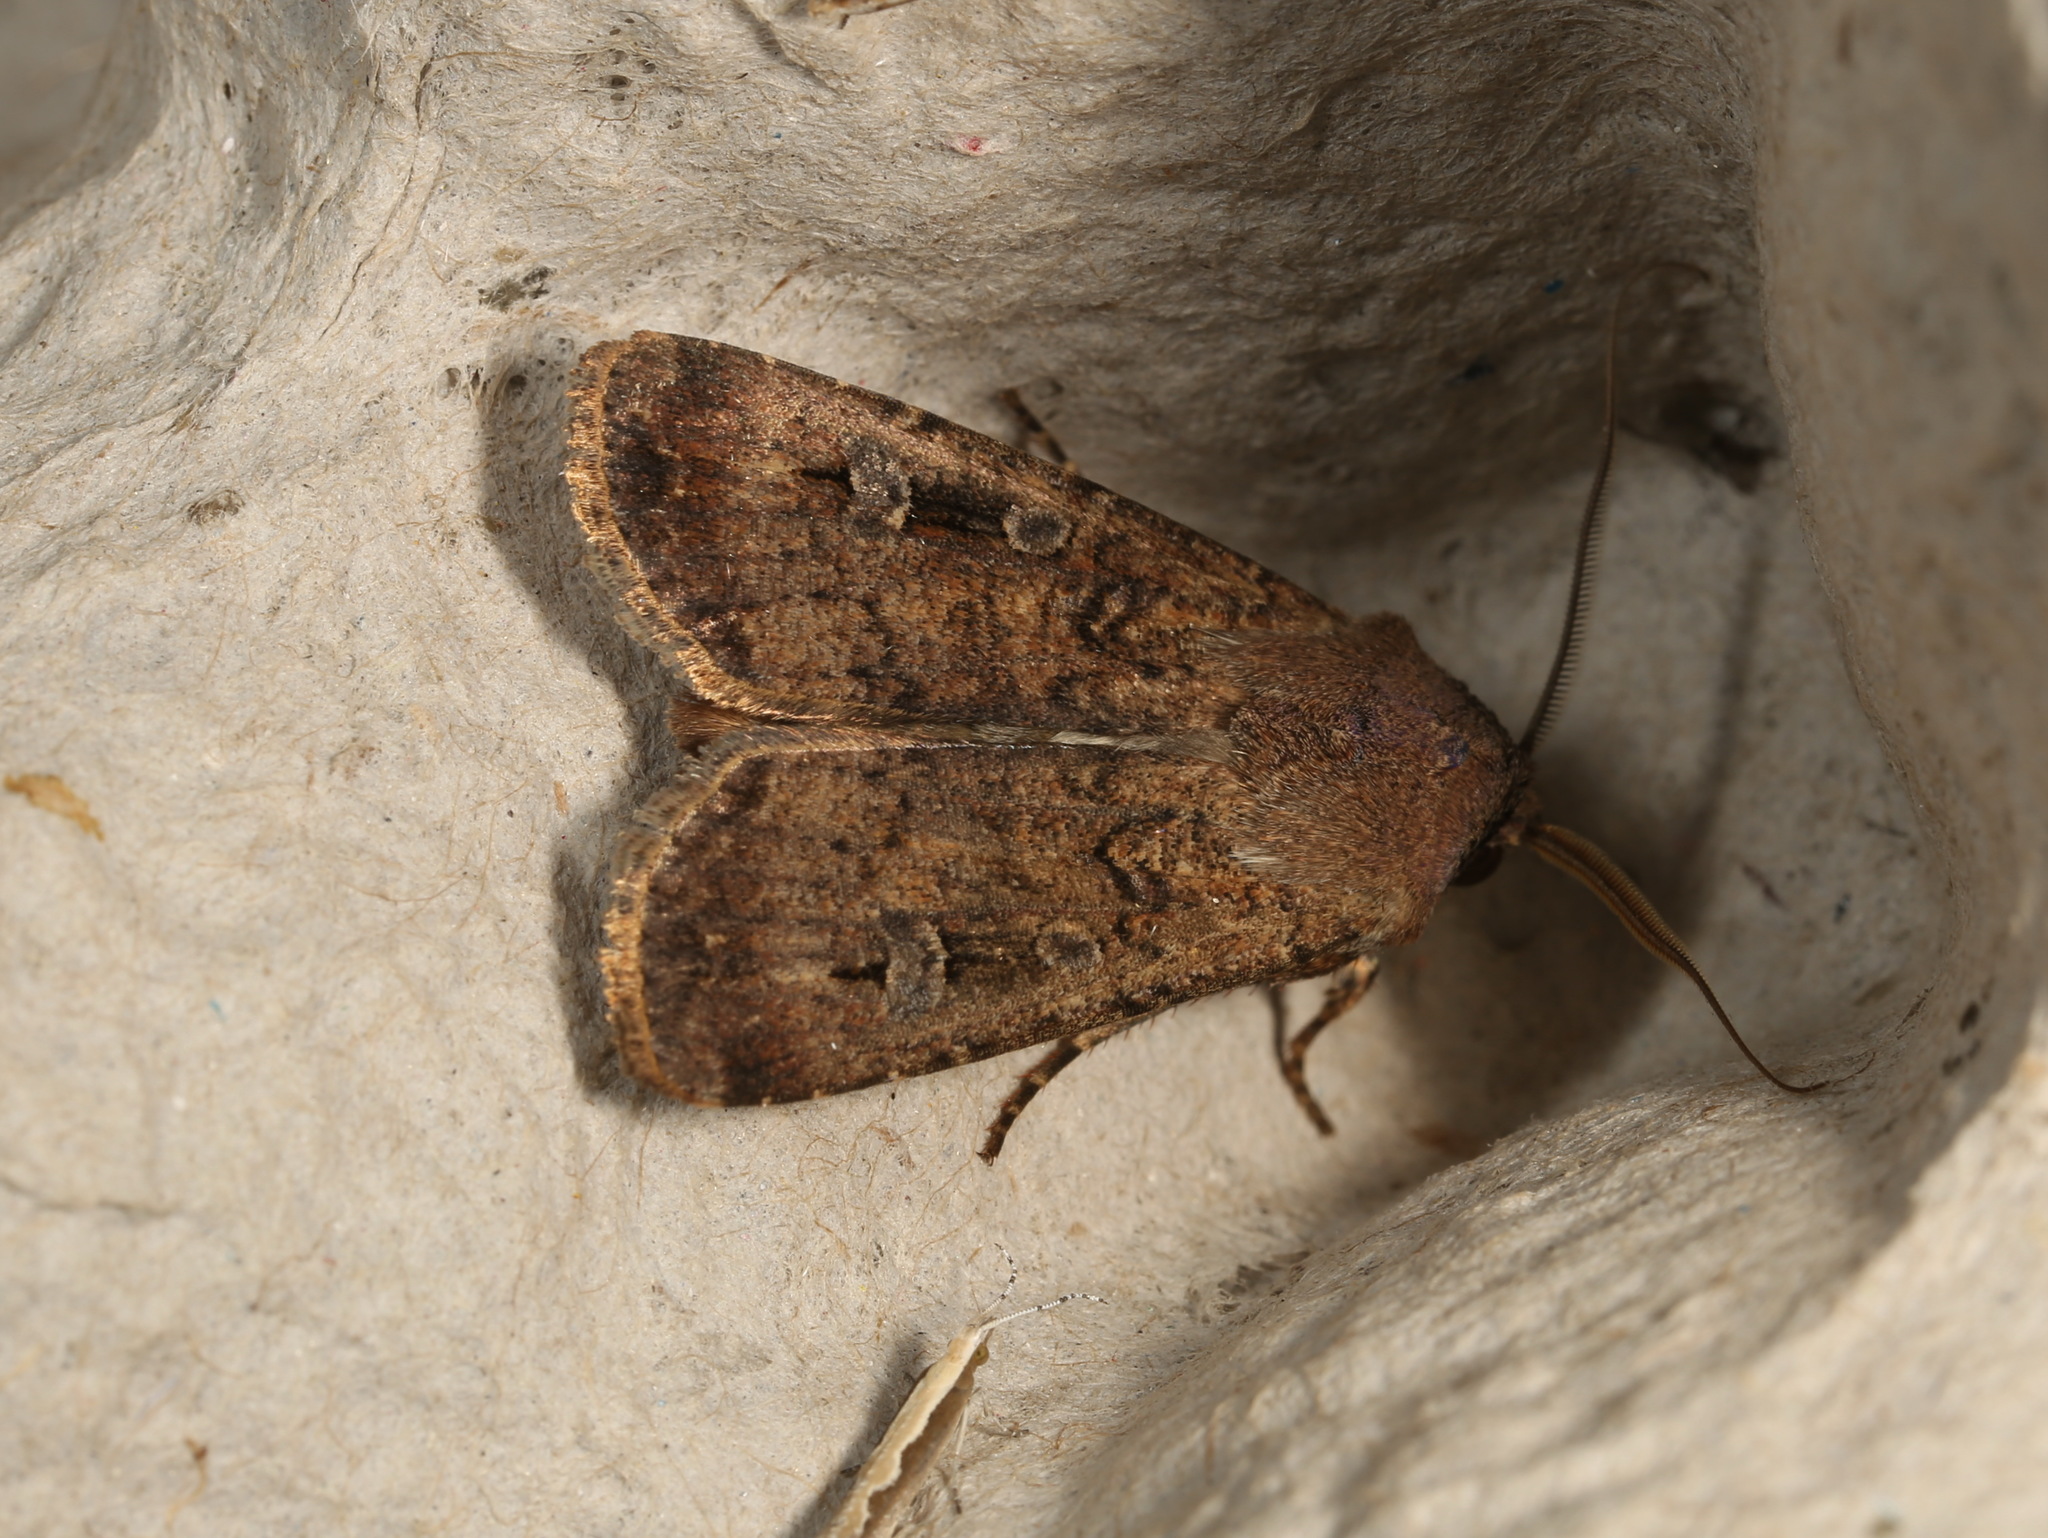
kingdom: Animalia
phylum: Arthropoda
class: Insecta
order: Lepidoptera
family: Noctuidae
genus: Agrotis
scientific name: Agrotis infusa
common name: Bogong moth
